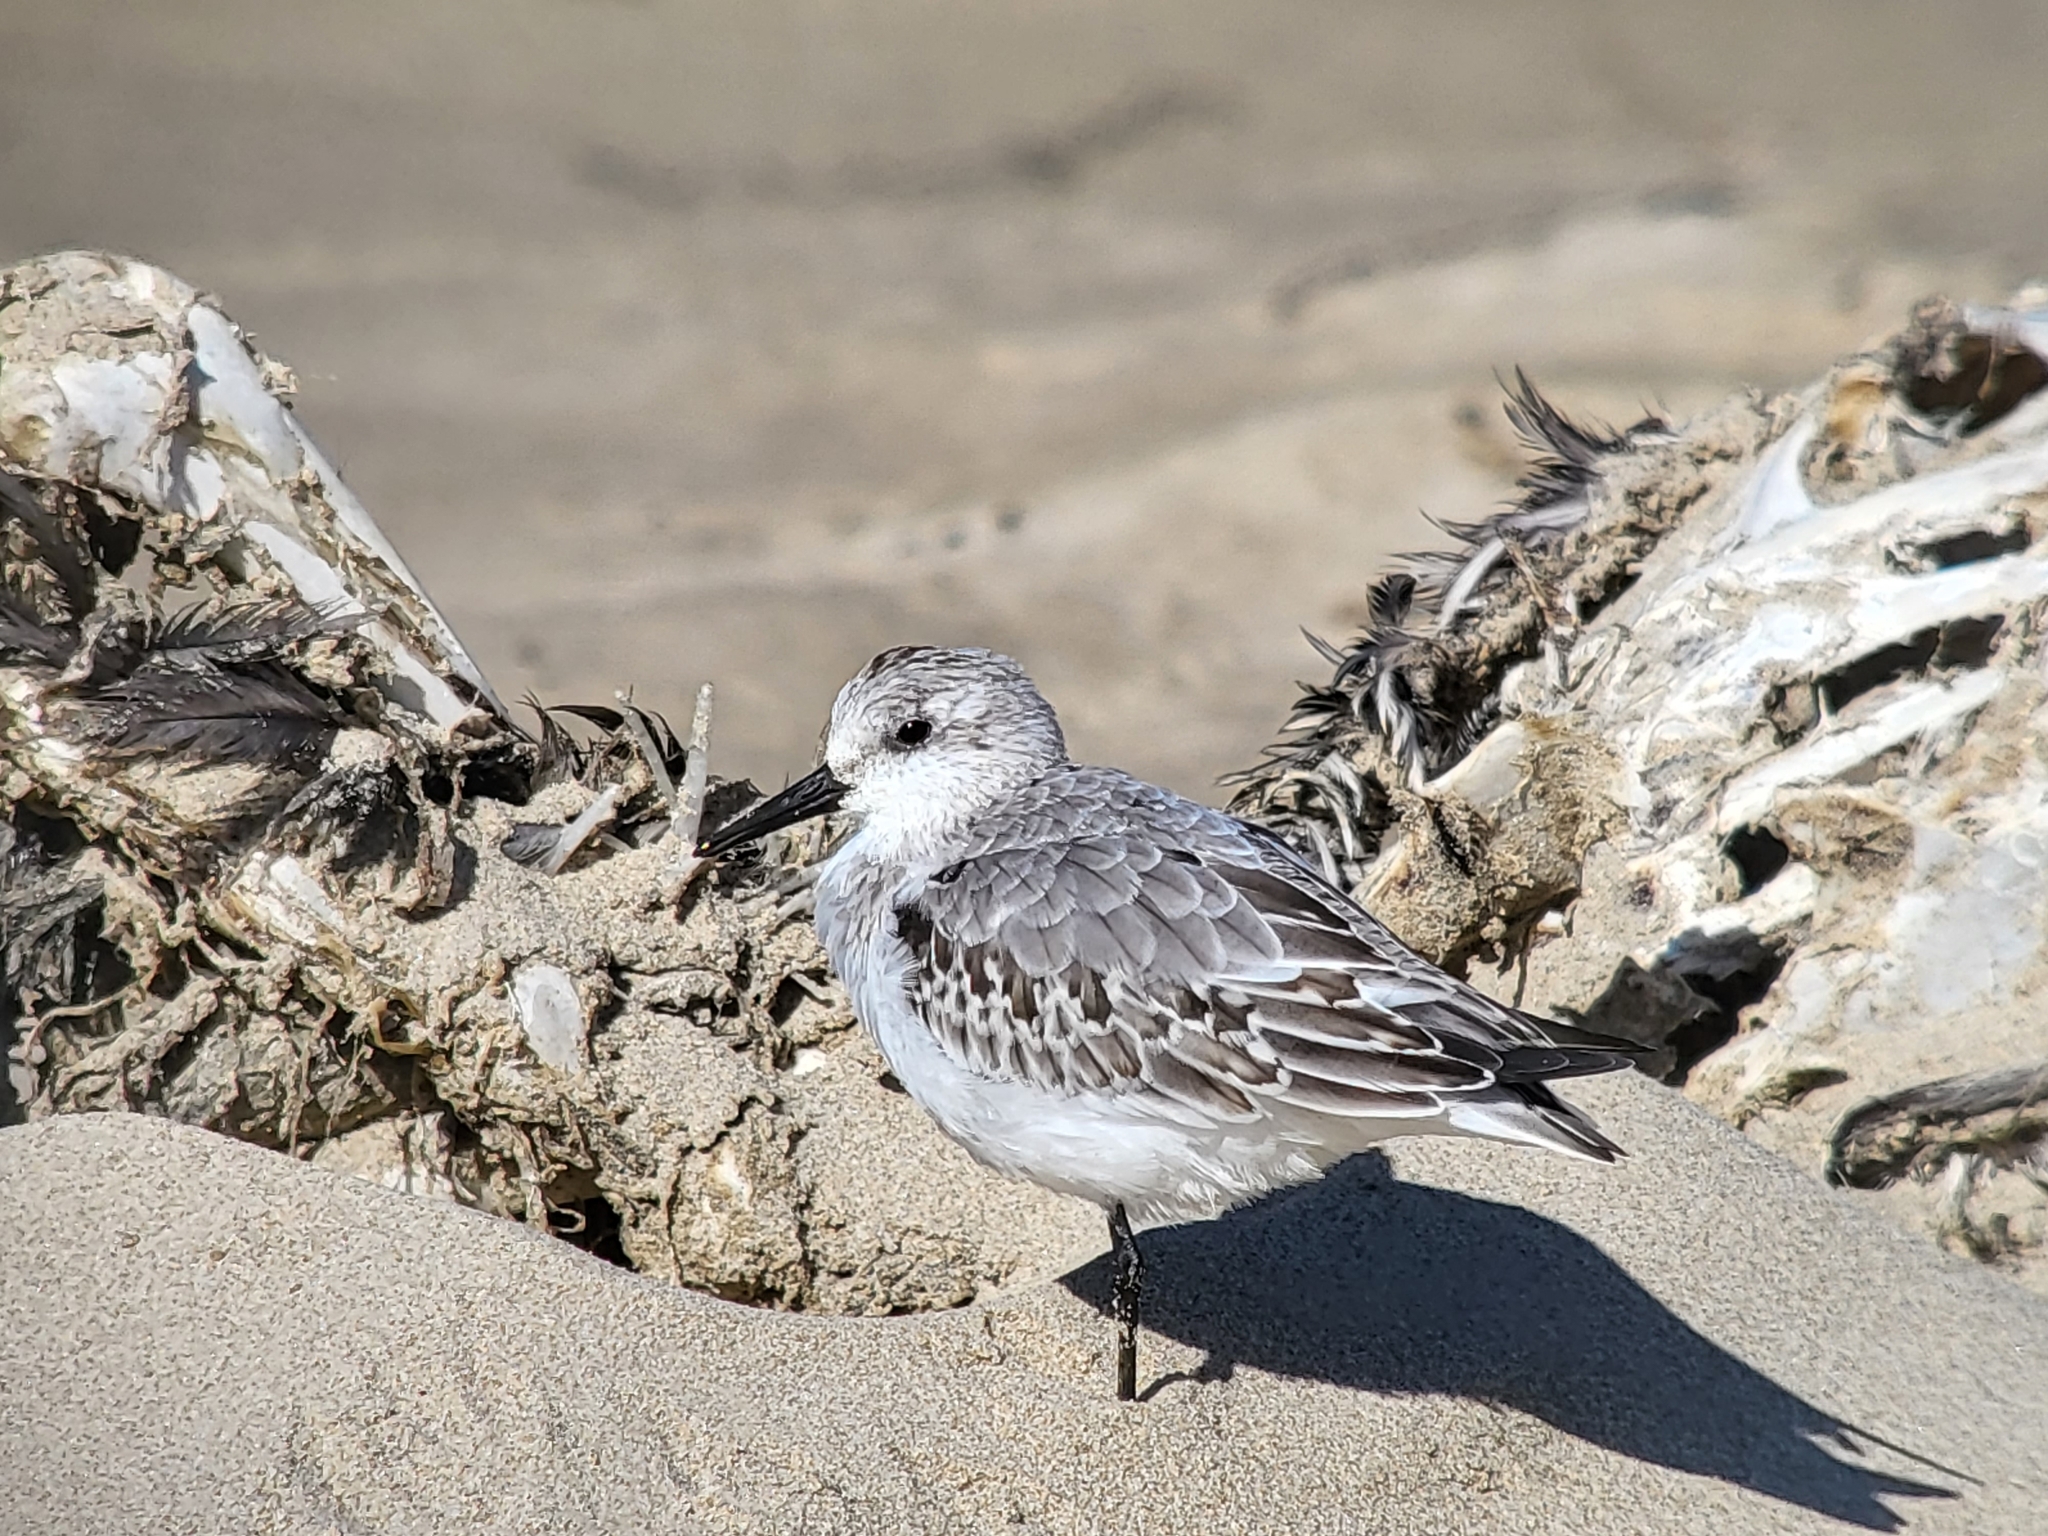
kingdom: Animalia
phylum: Chordata
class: Aves
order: Charadriiformes
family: Scolopacidae
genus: Calidris
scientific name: Calidris alba
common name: Sanderling
